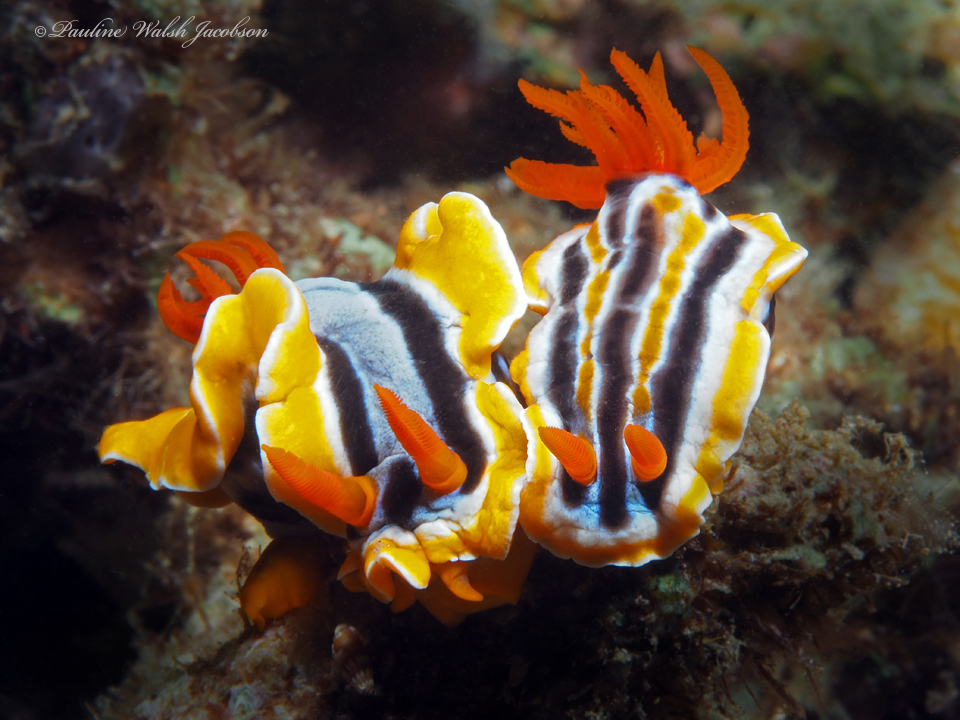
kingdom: Animalia
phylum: Mollusca
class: Gastropoda
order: Nudibranchia
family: Chromodorididae
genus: Chromodoris
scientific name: Chromodoris colemani
